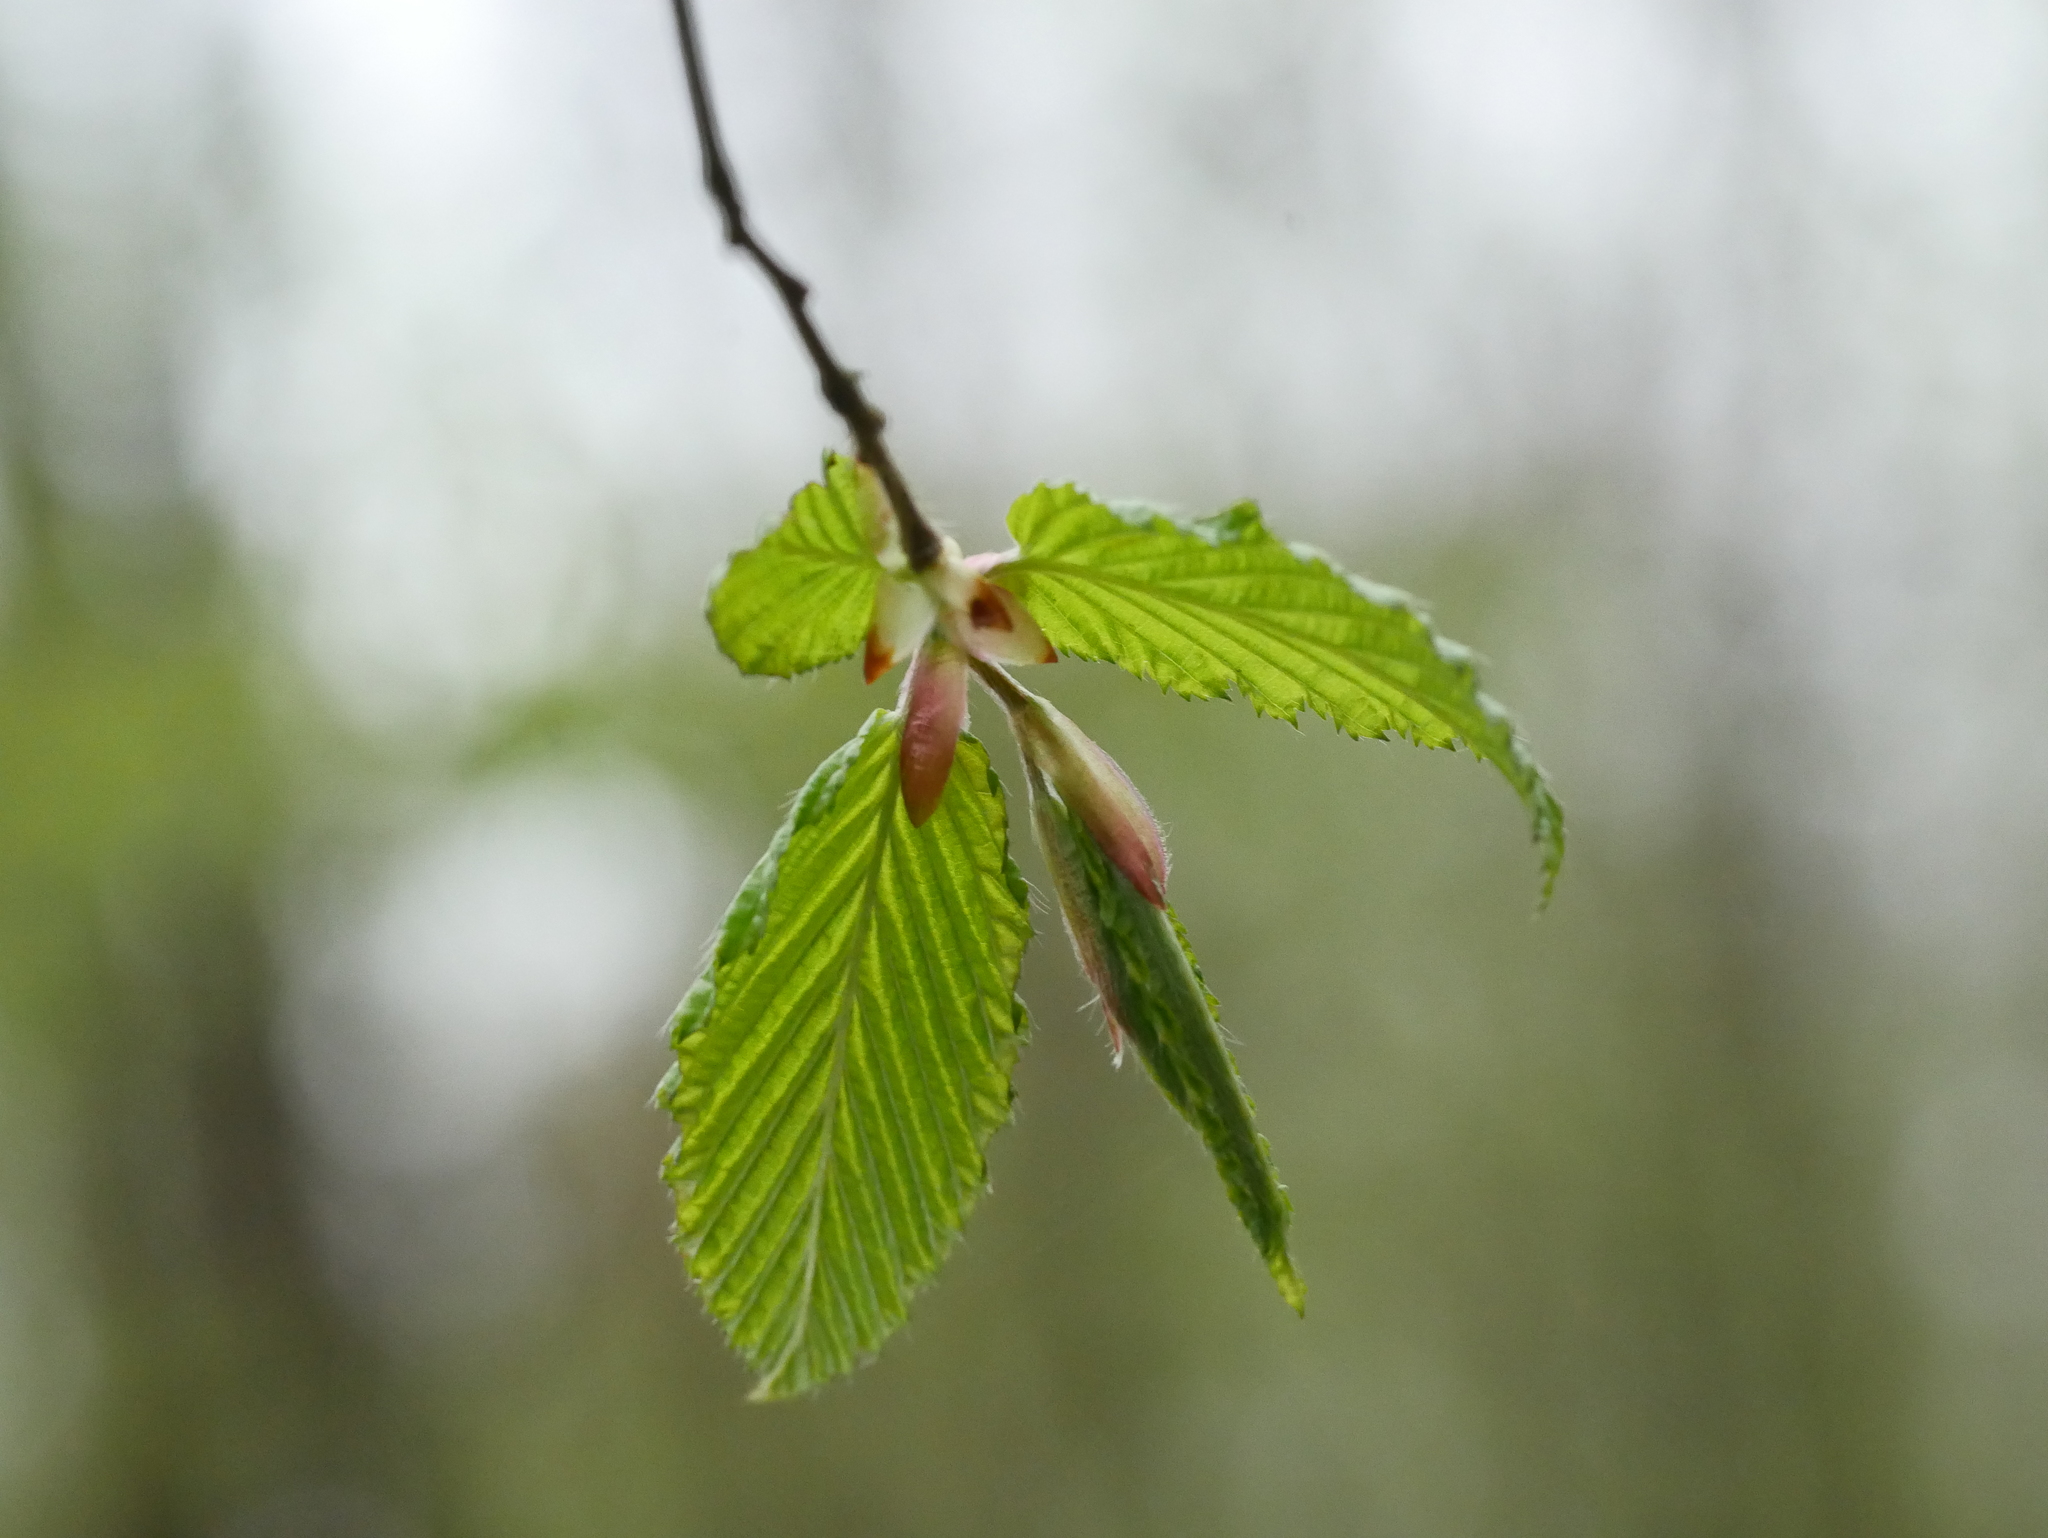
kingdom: Plantae
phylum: Tracheophyta
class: Magnoliopsida
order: Fagales
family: Betulaceae
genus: Carpinus
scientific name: Carpinus betulus
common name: Hornbeam
